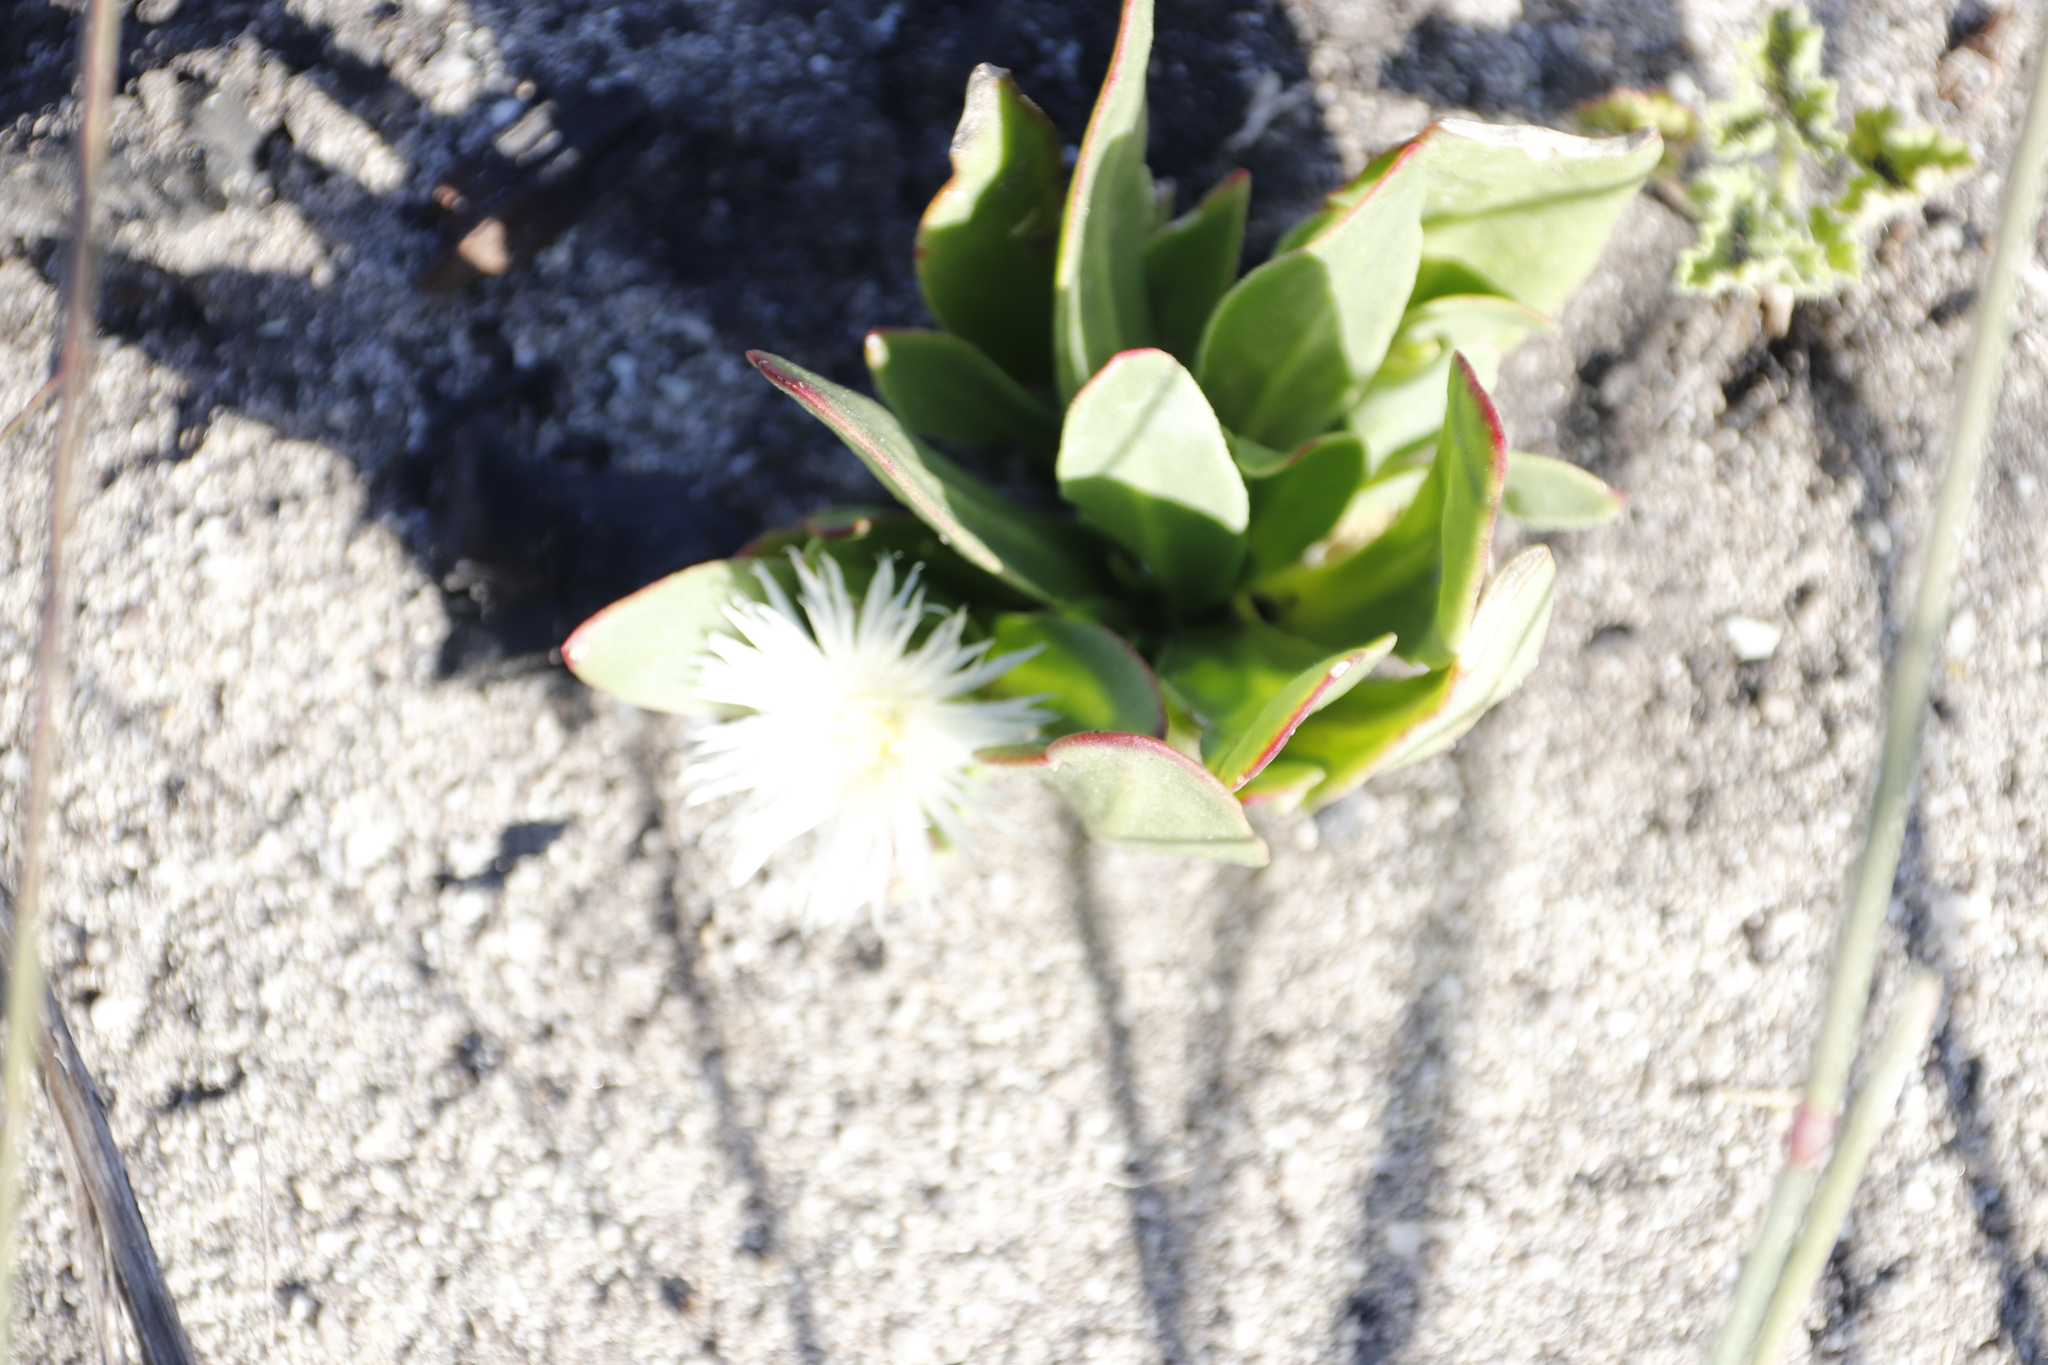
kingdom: Plantae
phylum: Tracheophyta
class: Magnoliopsida
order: Caryophyllales
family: Aizoaceae
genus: Skiatophytum
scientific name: Skiatophytum tripolium
